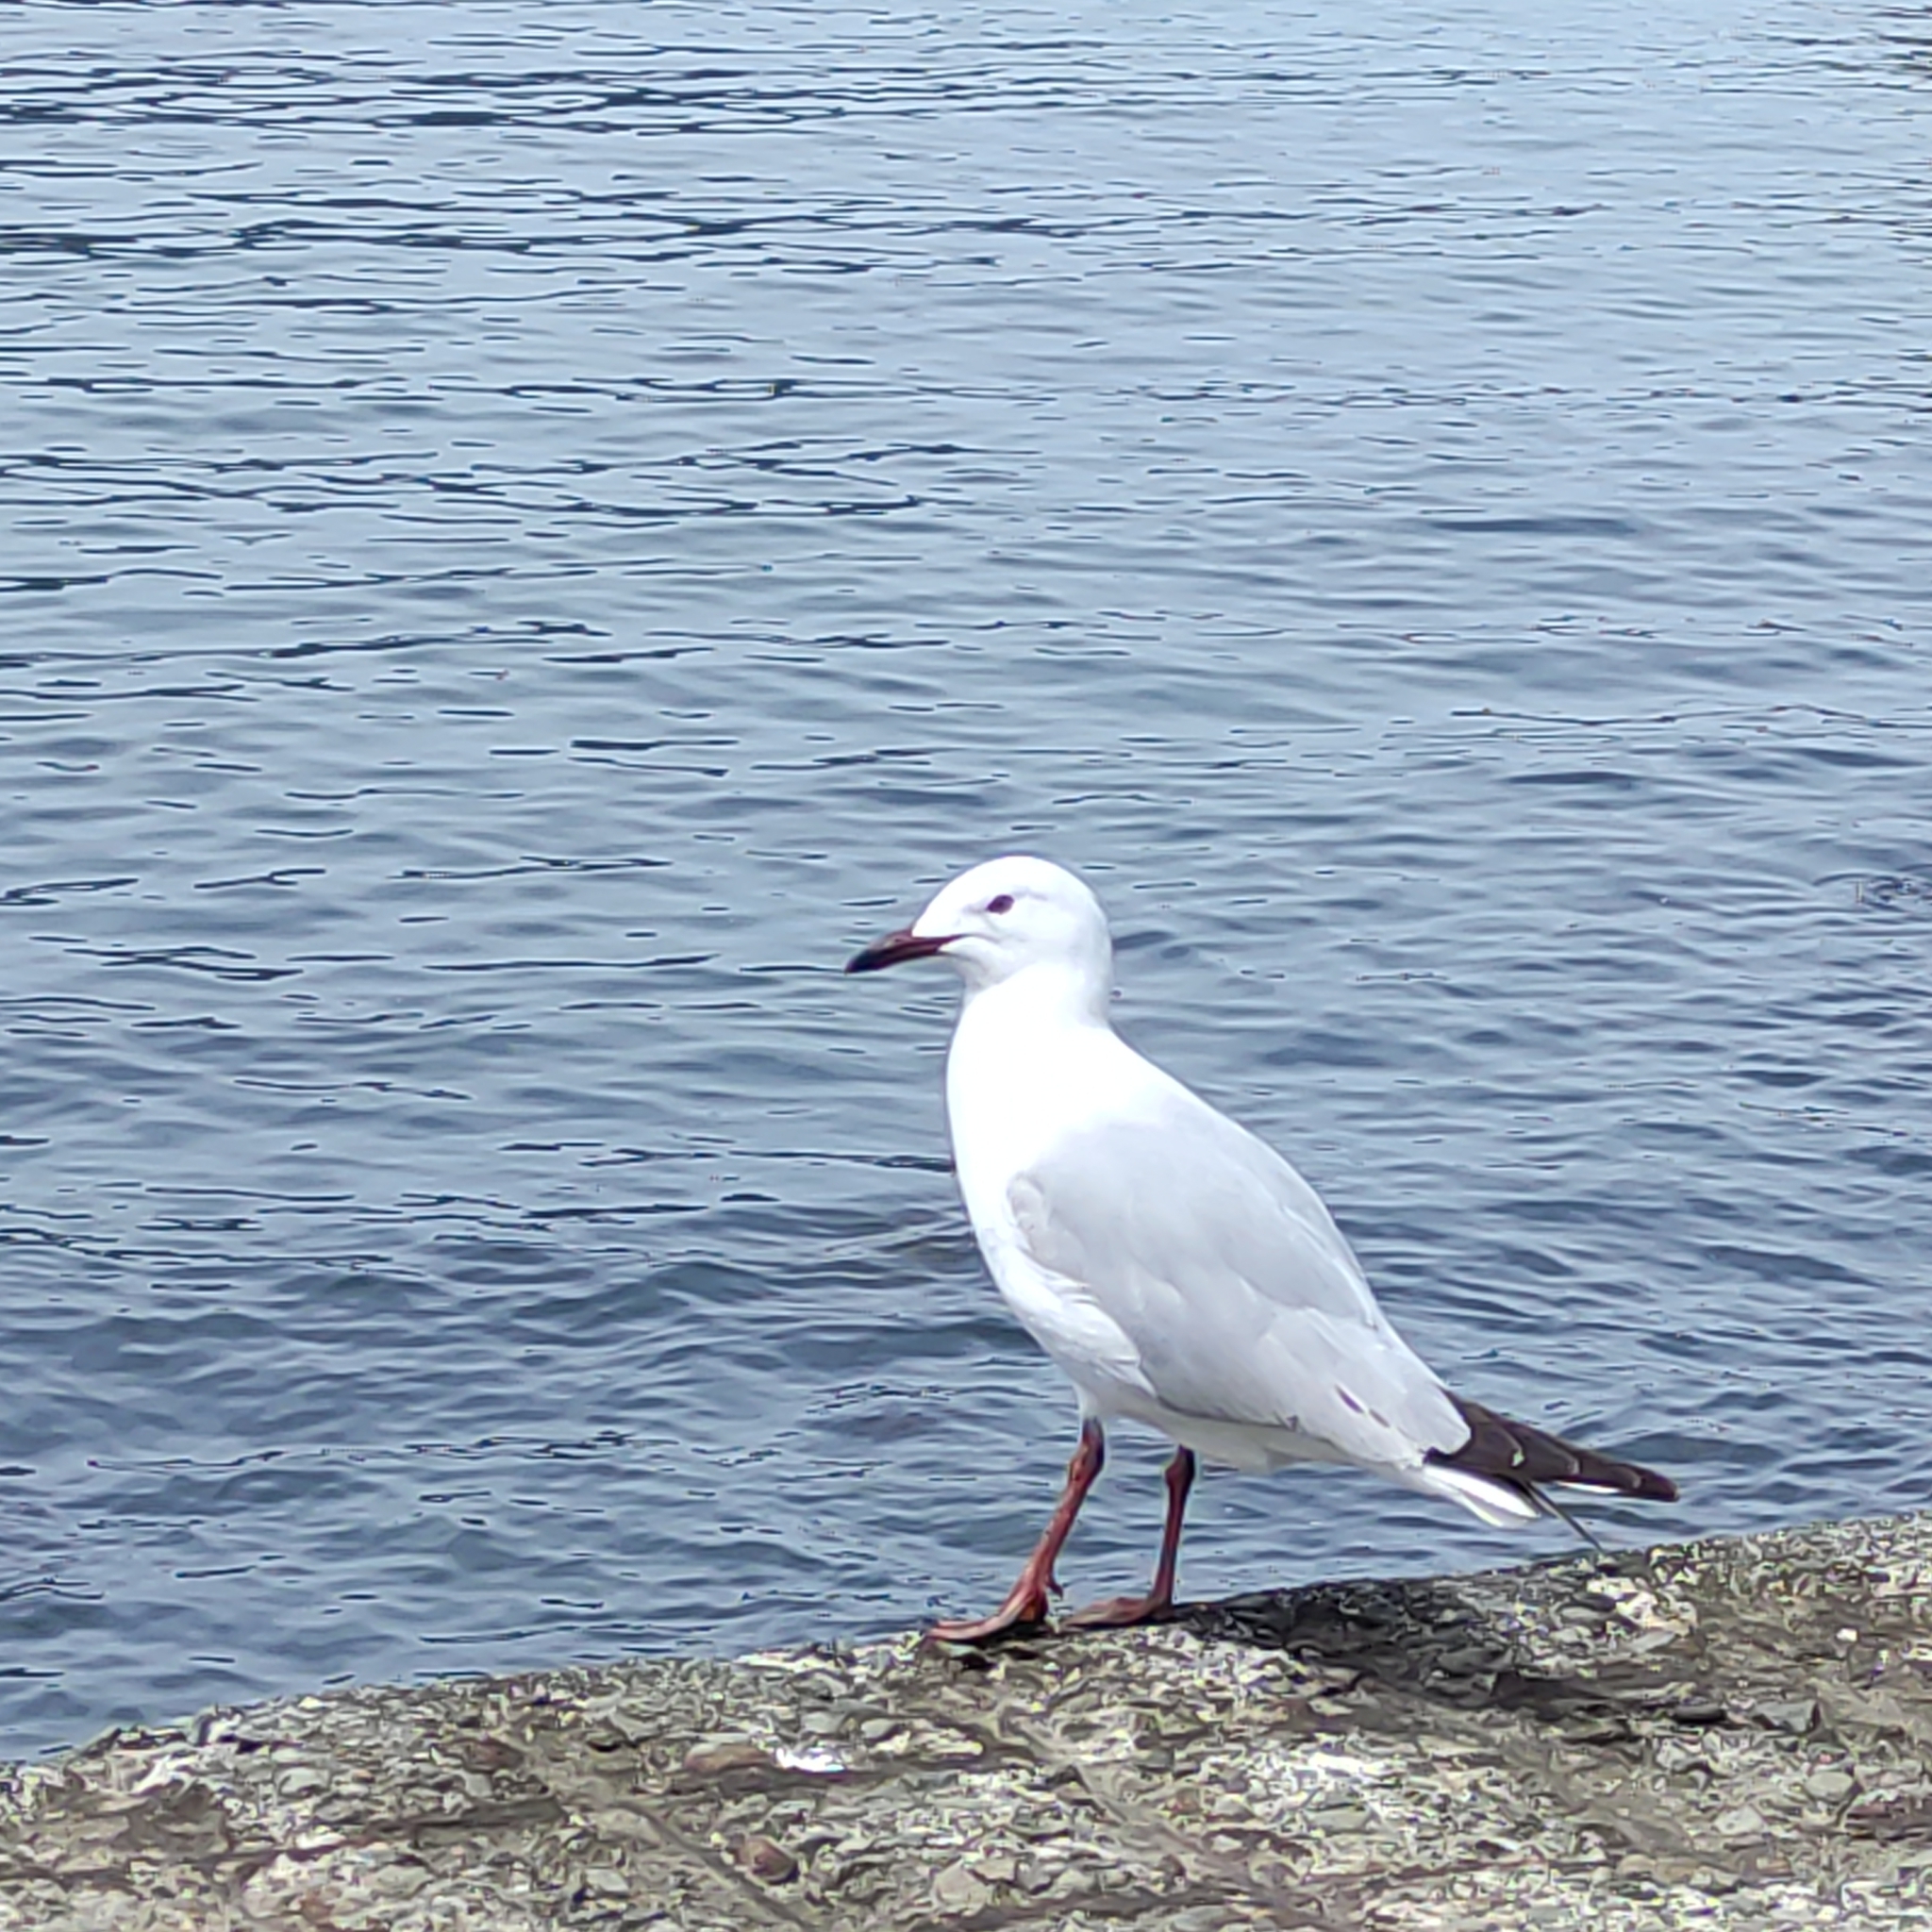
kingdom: Animalia
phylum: Chordata
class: Aves
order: Charadriiformes
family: Laridae
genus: Chroicocephalus
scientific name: Chroicocephalus novaehollandiae
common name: Silver gull
